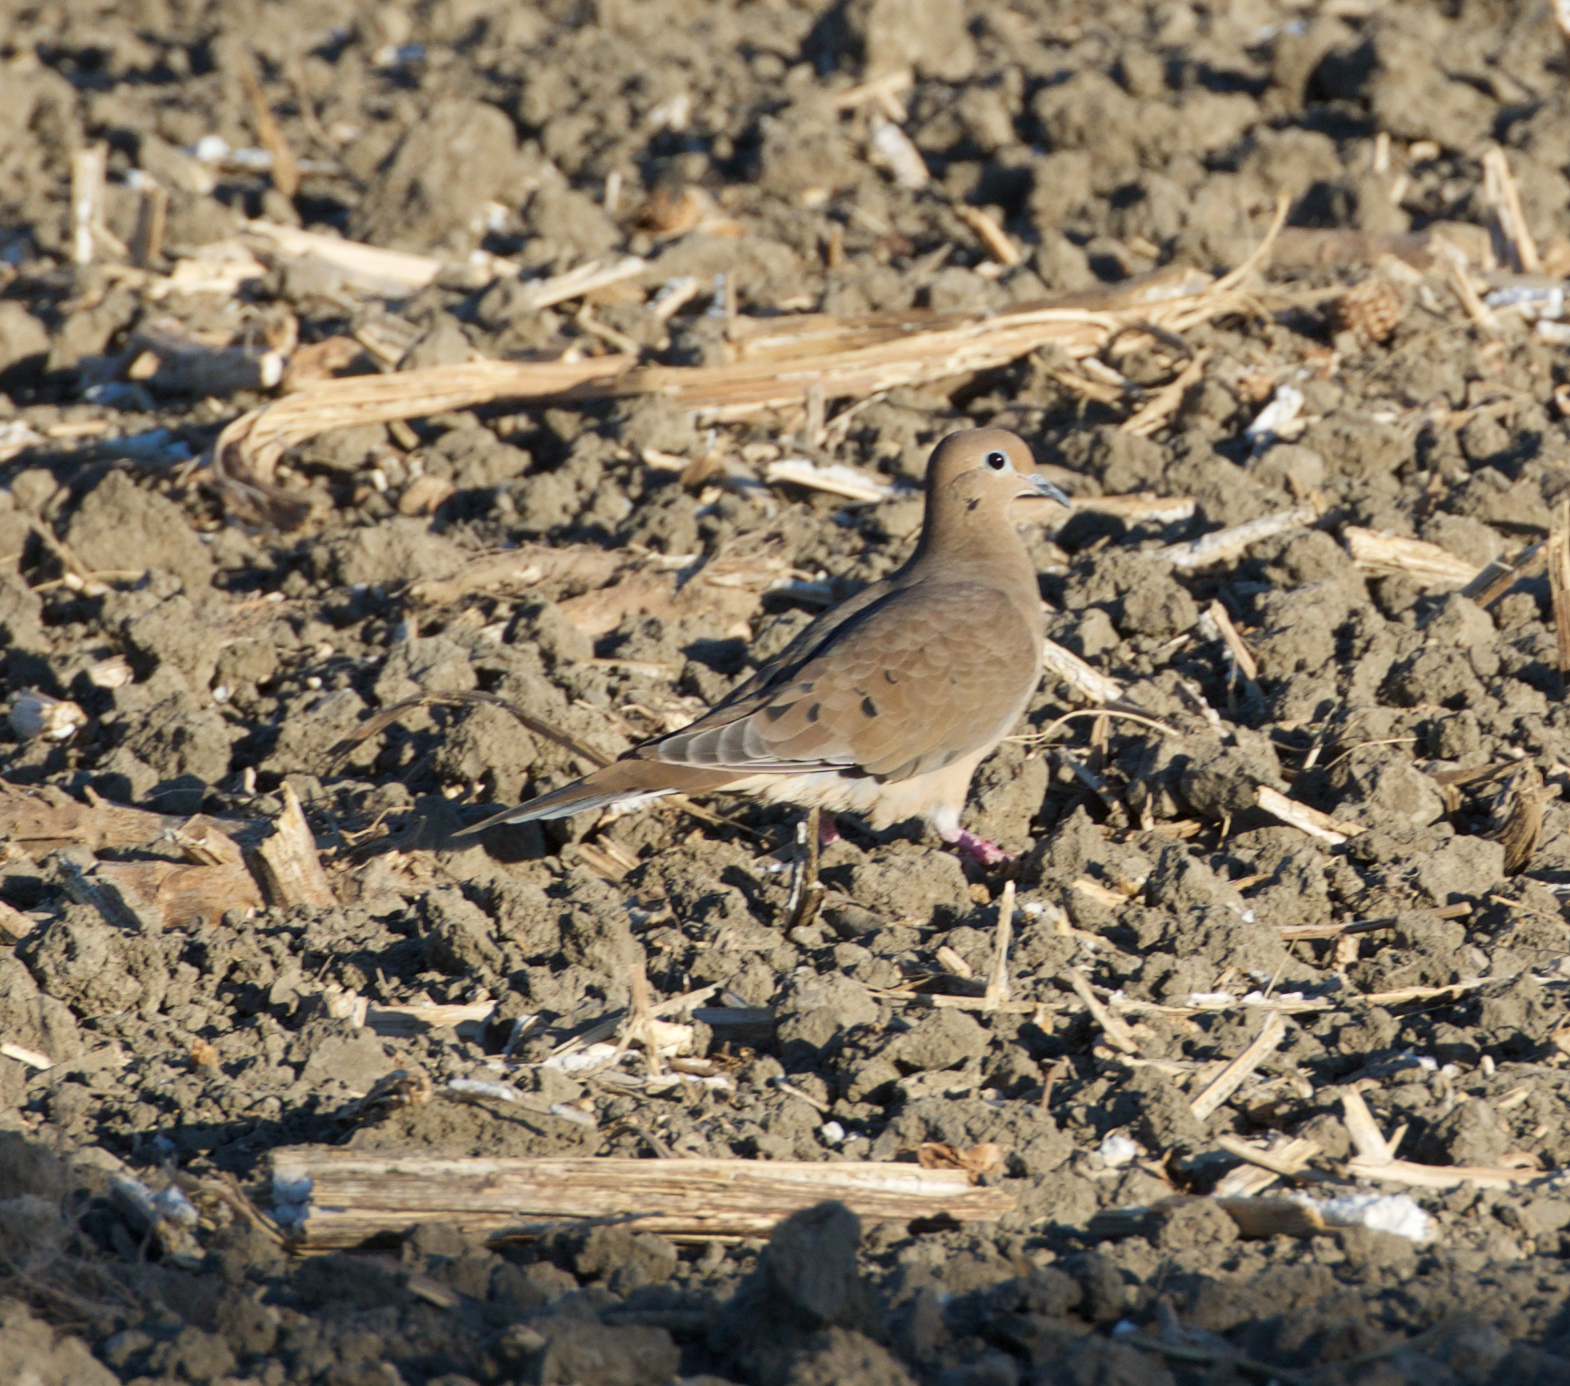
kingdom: Animalia
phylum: Chordata
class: Aves
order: Columbiformes
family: Columbidae
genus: Zenaida
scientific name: Zenaida macroura
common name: Mourning dove
